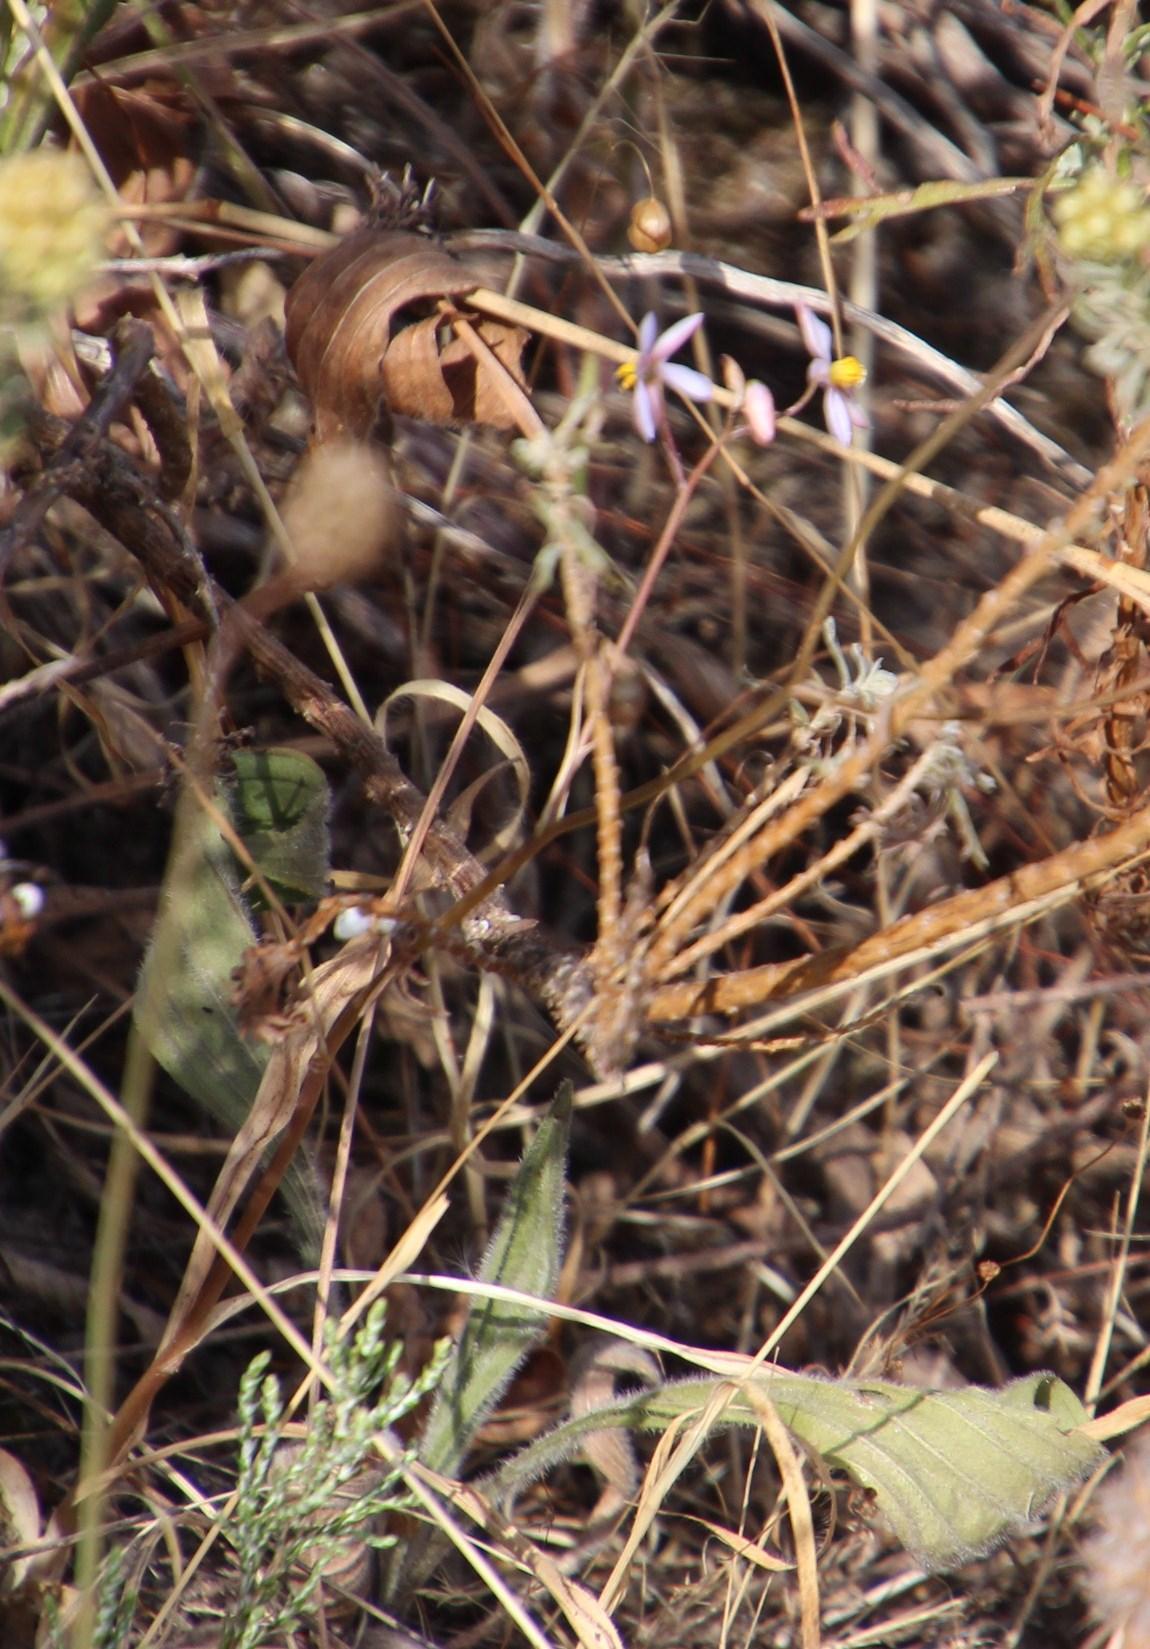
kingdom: Plantae
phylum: Tracheophyta
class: Liliopsida
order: Asparagales
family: Tecophilaeaceae
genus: Cyanella
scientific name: Cyanella hyacinthoides
